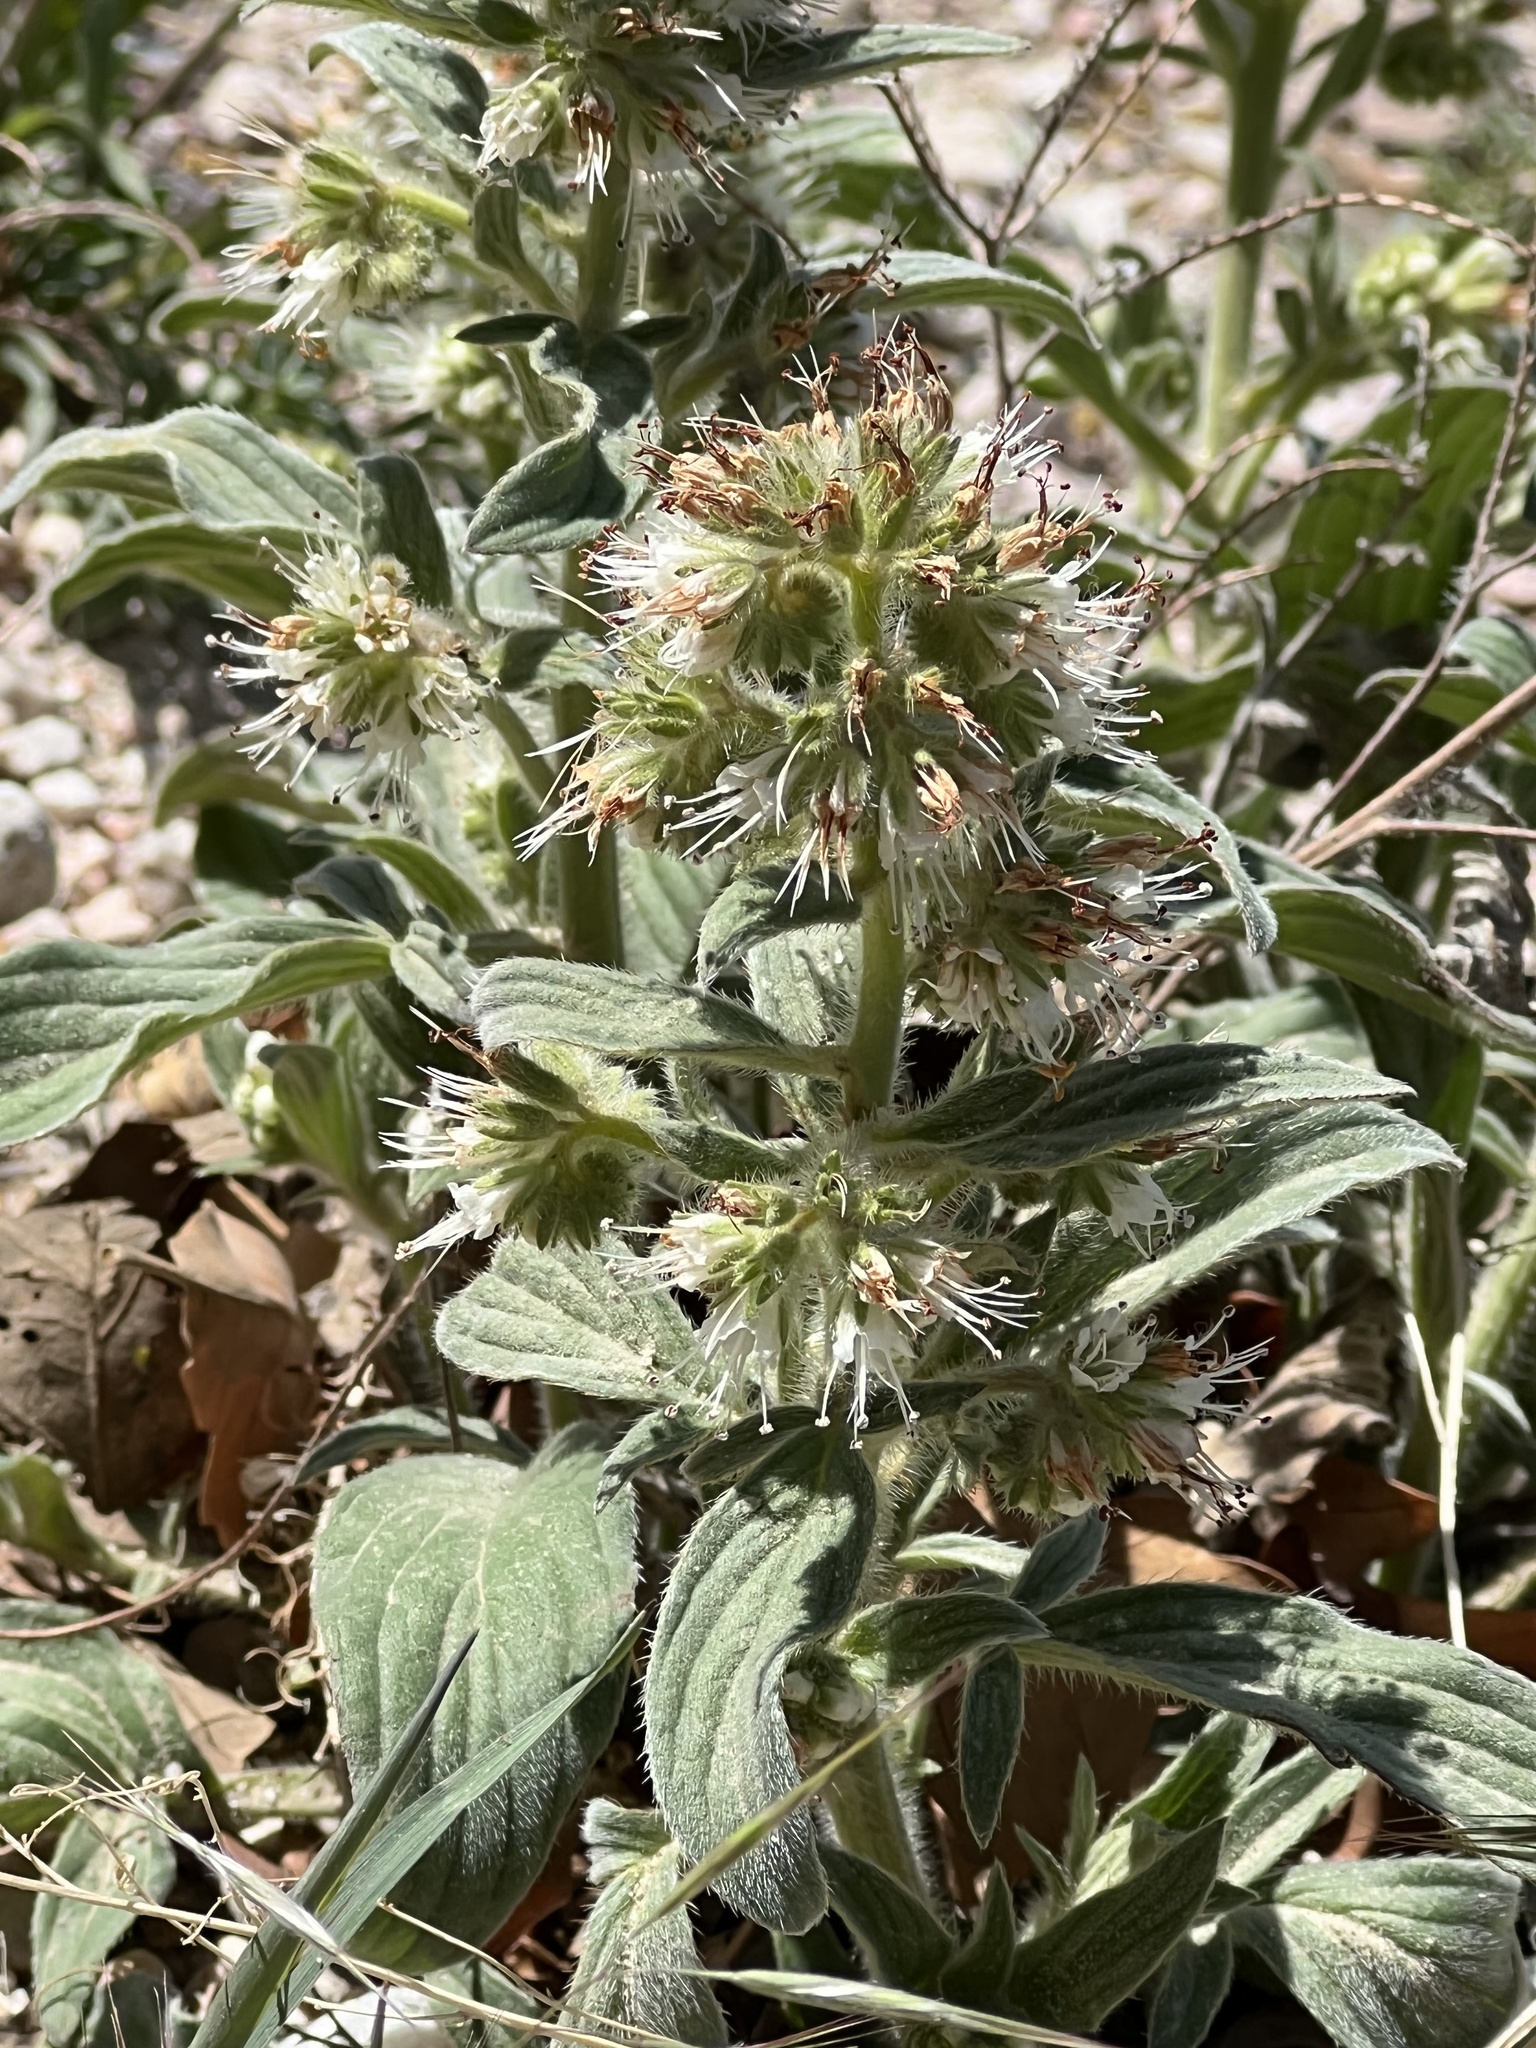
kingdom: Plantae
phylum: Tracheophyta
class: Magnoliopsida
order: Boraginales
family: Hydrophyllaceae
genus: Phacelia
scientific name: Phacelia heterophylla
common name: Variable-leaved phacelia
